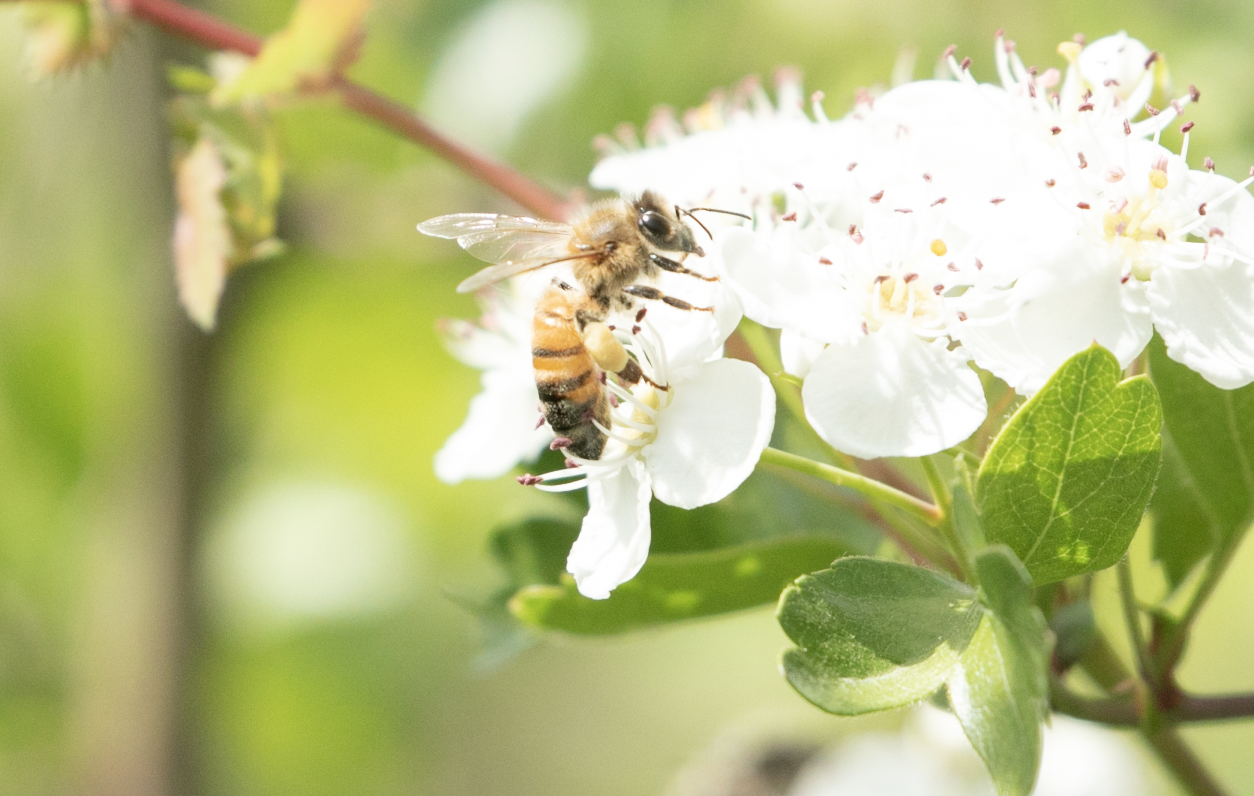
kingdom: Animalia
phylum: Arthropoda
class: Insecta
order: Hymenoptera
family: Apidae
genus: Apis
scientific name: Apis mellifera
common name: Honey bee
